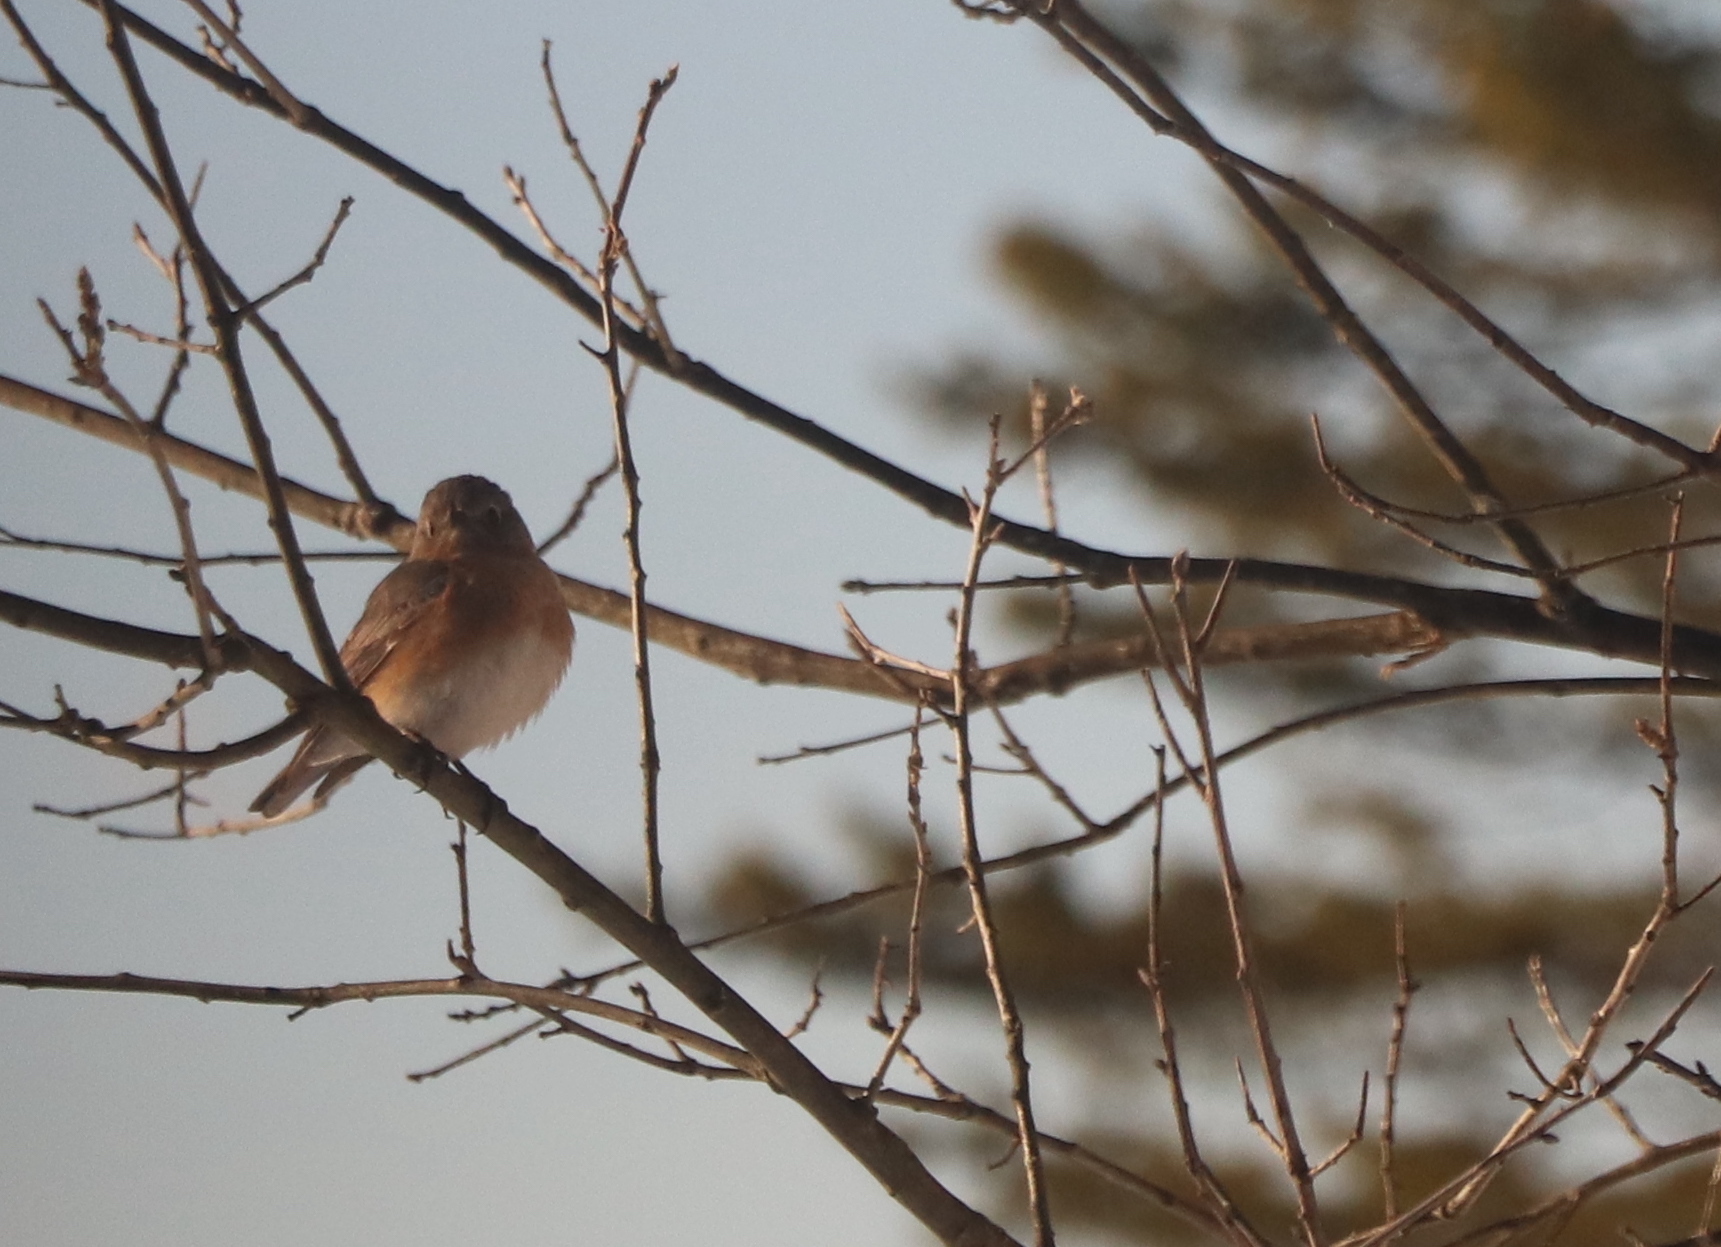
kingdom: Animalia
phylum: Chordata
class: Aves
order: Passeriformes
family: Turdidae
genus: Sialia
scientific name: Sialia sialis
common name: Eastern bluebird
